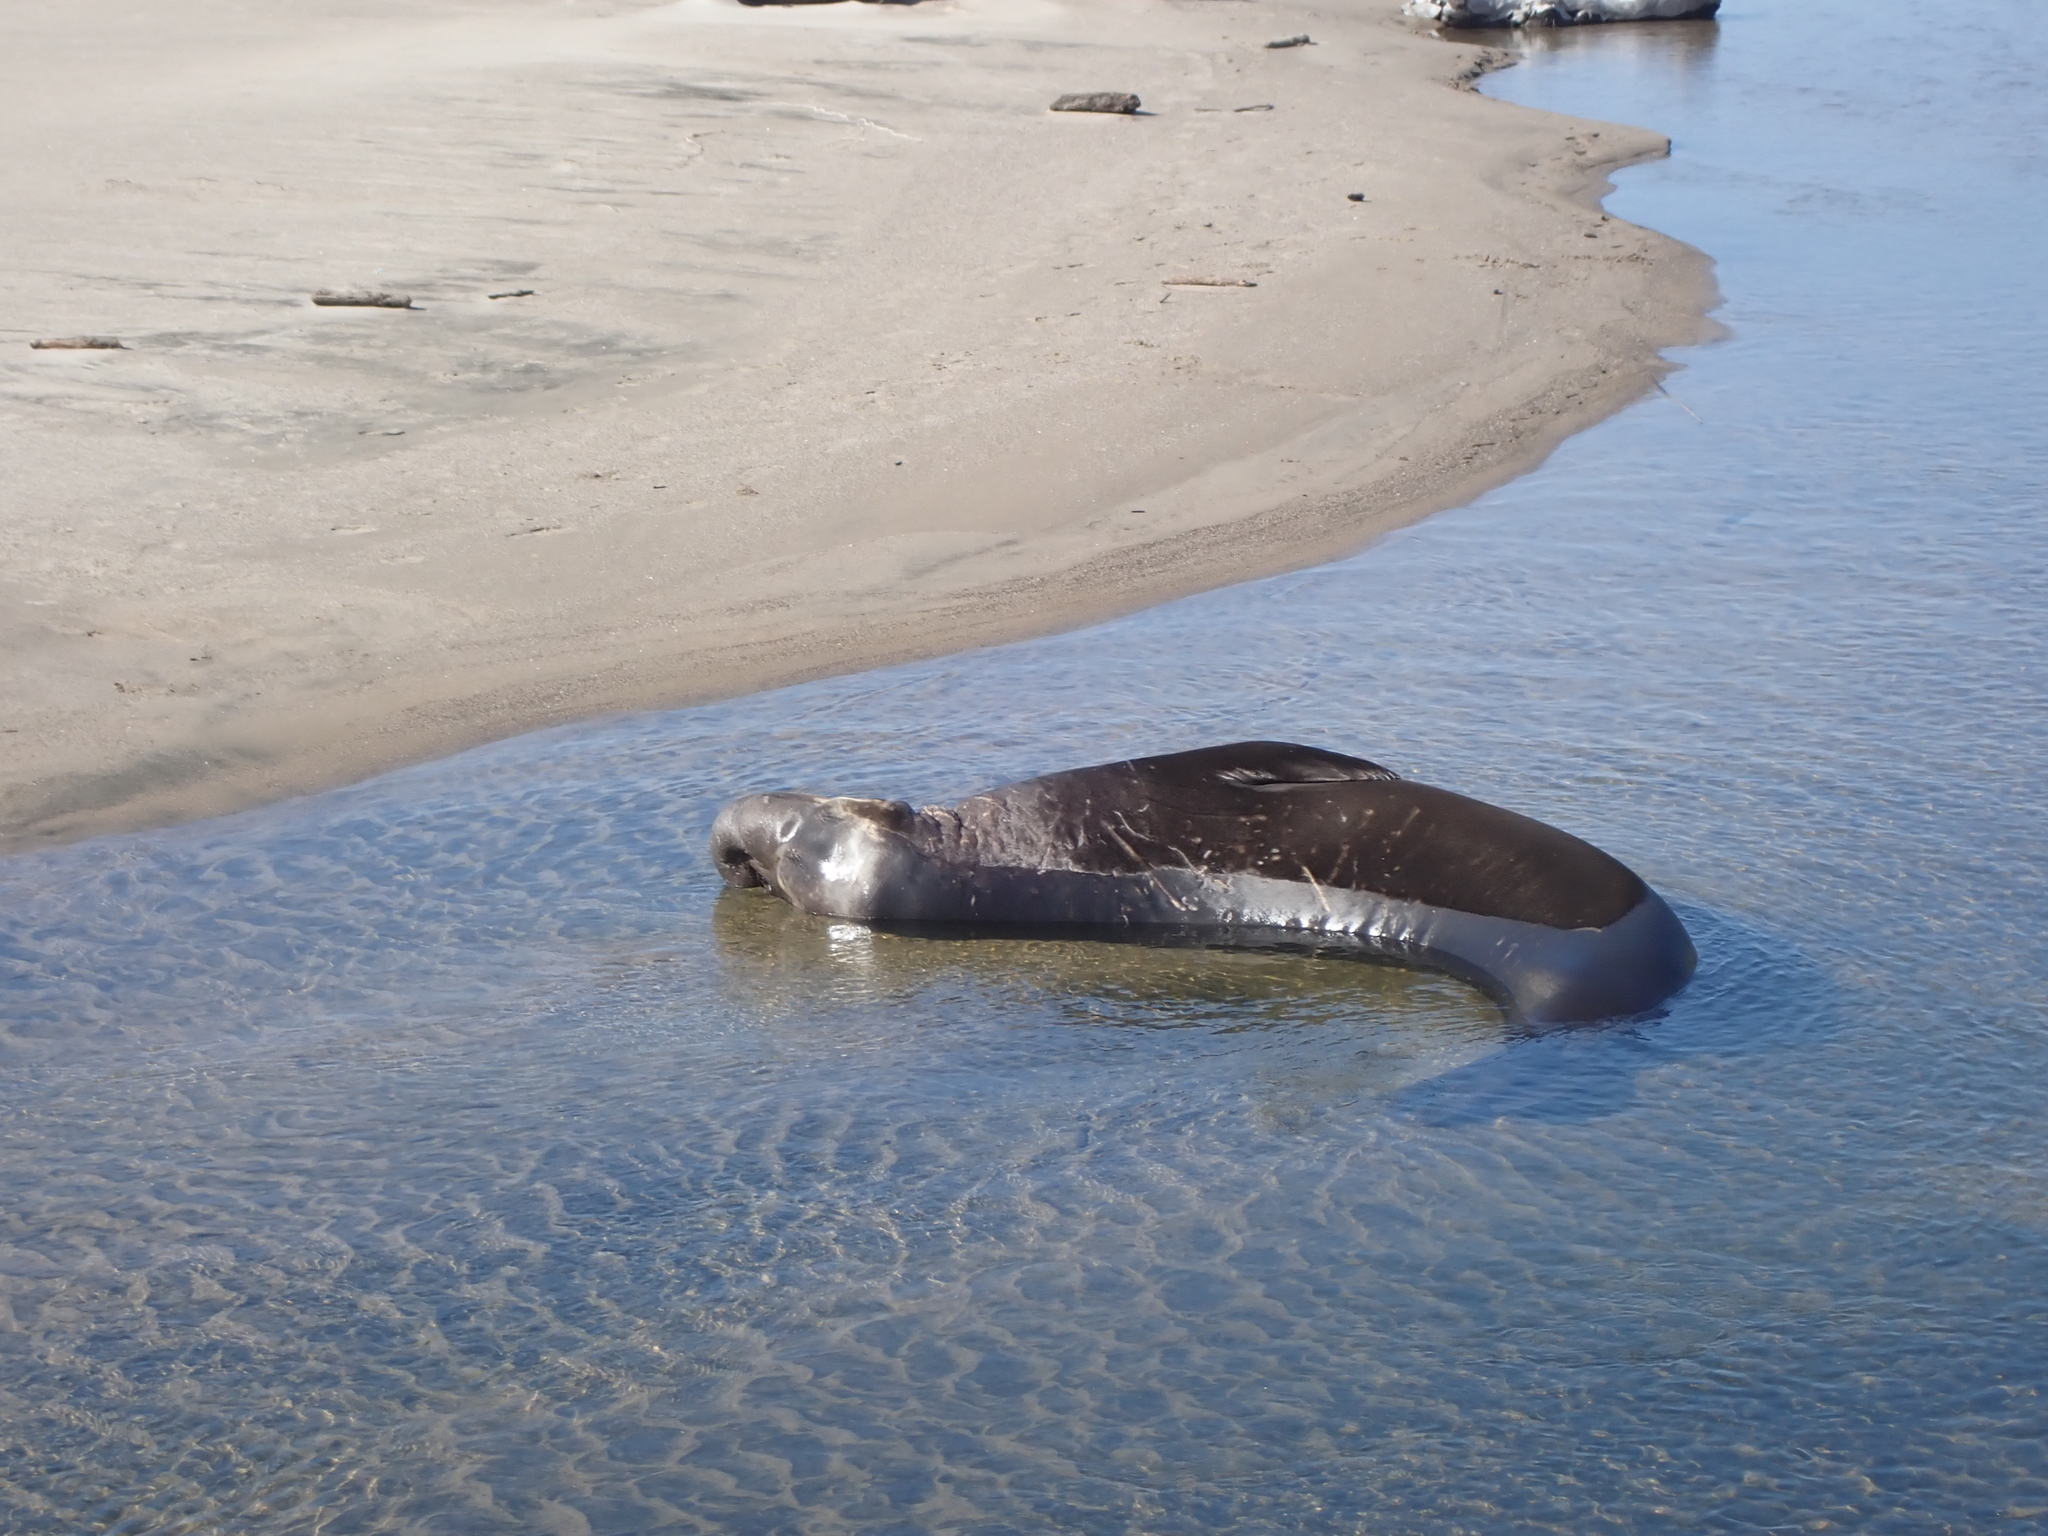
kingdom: Animalia
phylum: Chordata
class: Mammalia
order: Carnivora
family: Phocidae
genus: Mirounga
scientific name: Mirounga angustirostris
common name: Northern elephant seal
